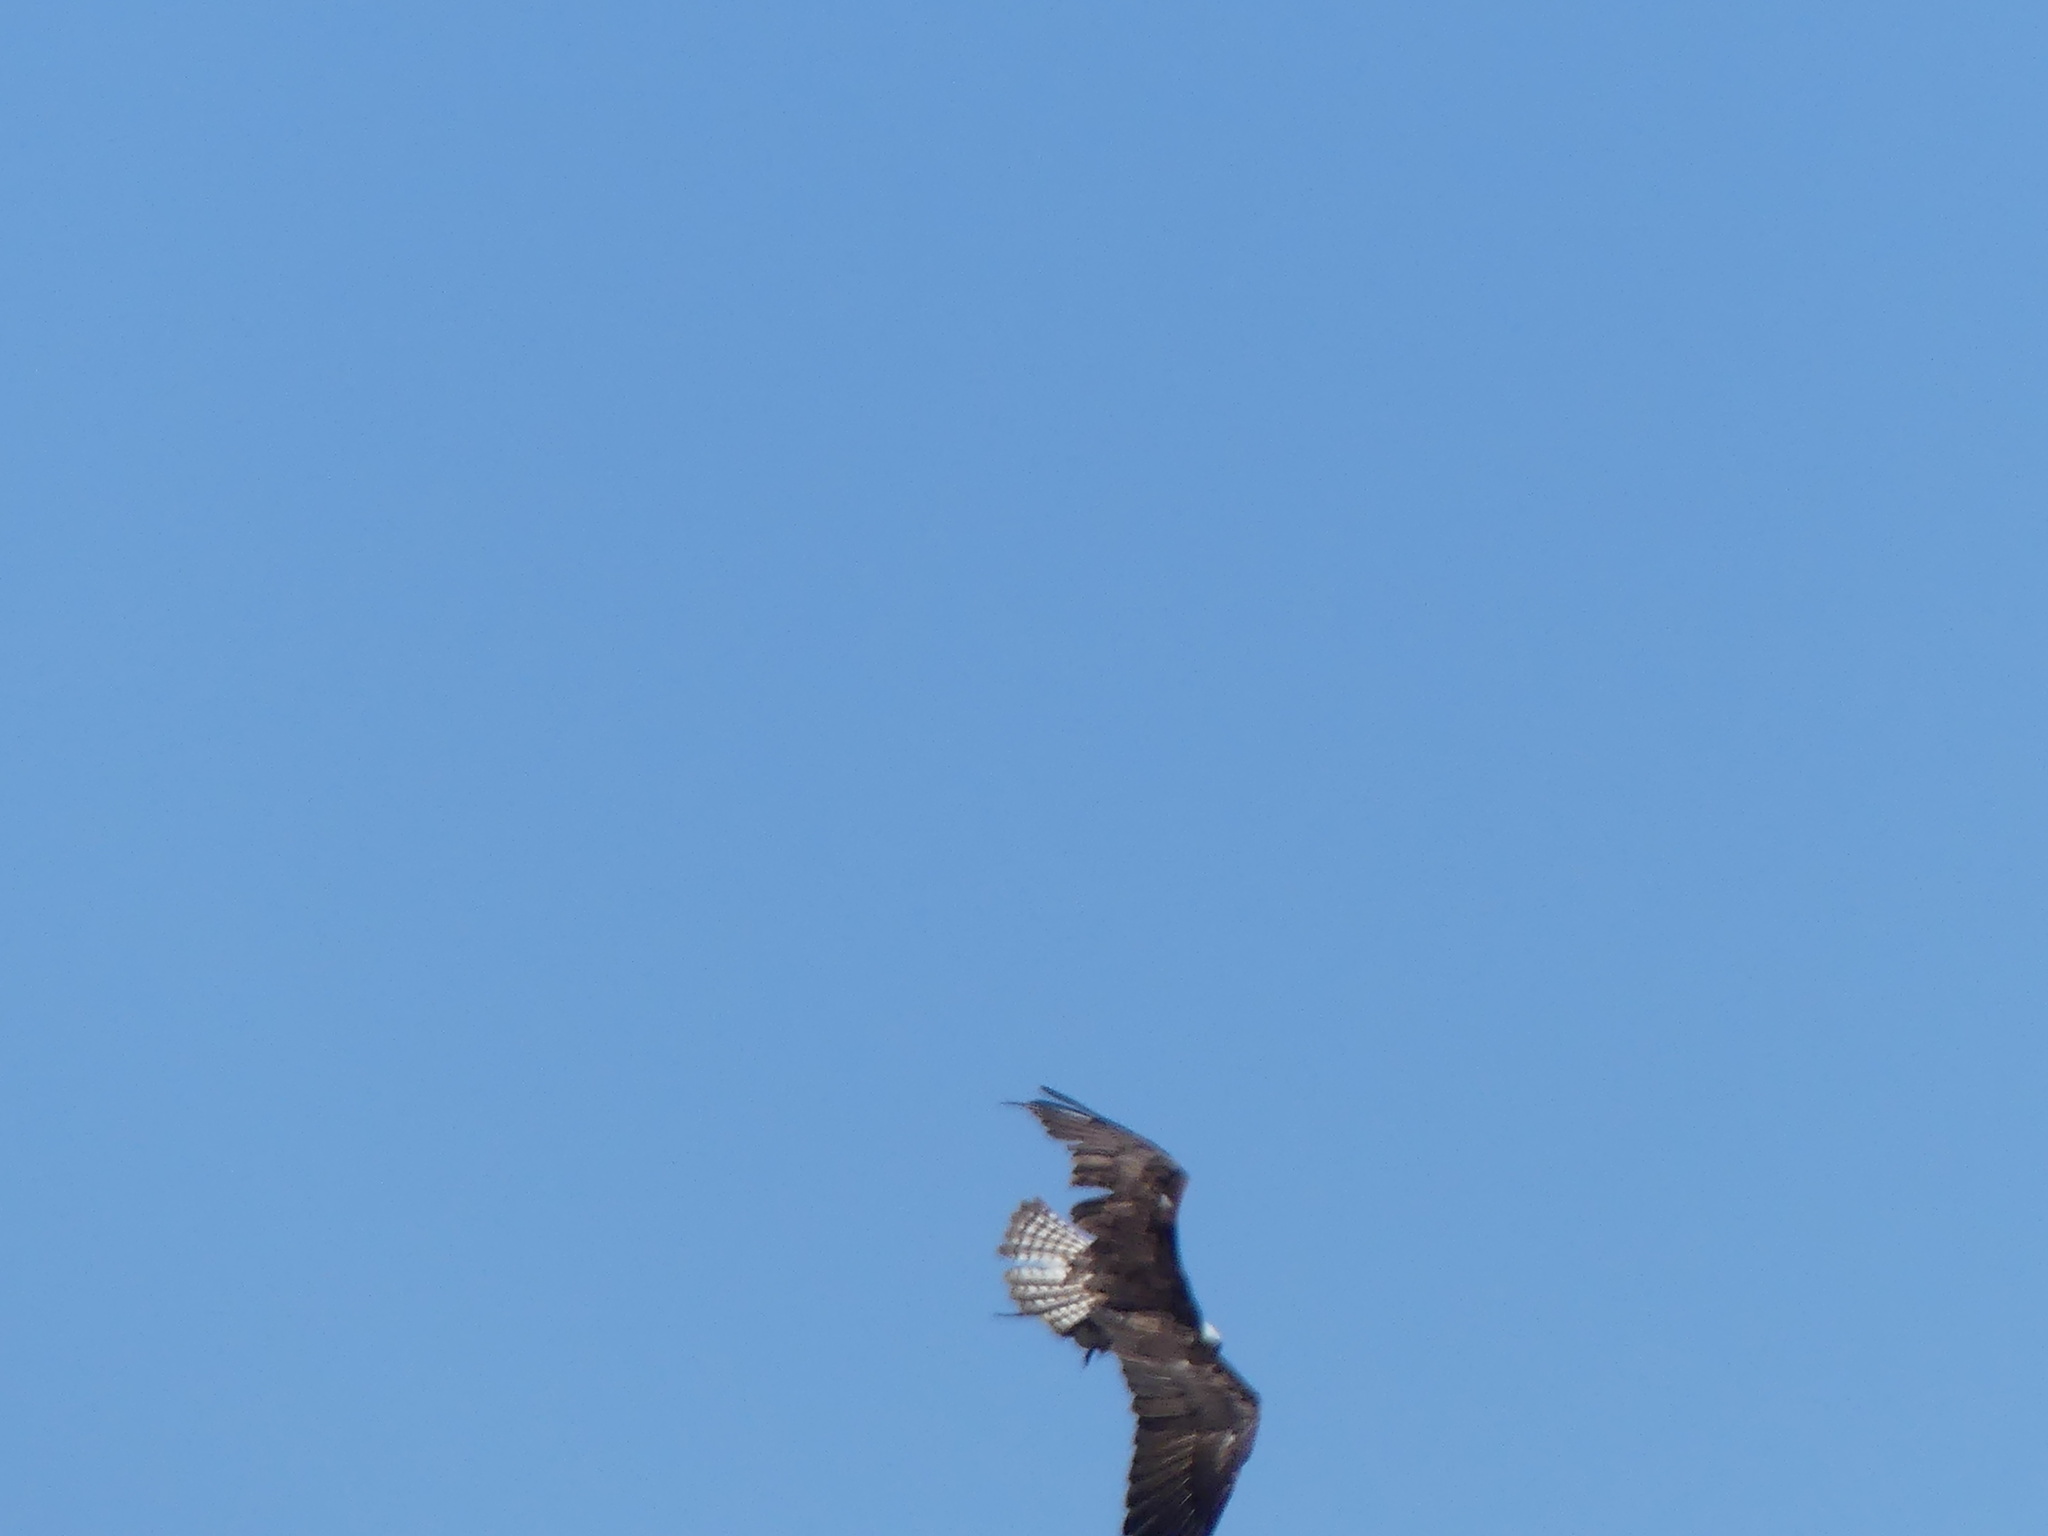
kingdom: Animalia
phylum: Chordata
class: Aves
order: Accipitriformes
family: Pandionidae
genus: Pandion
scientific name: Pandion haliaetus
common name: Osprey
